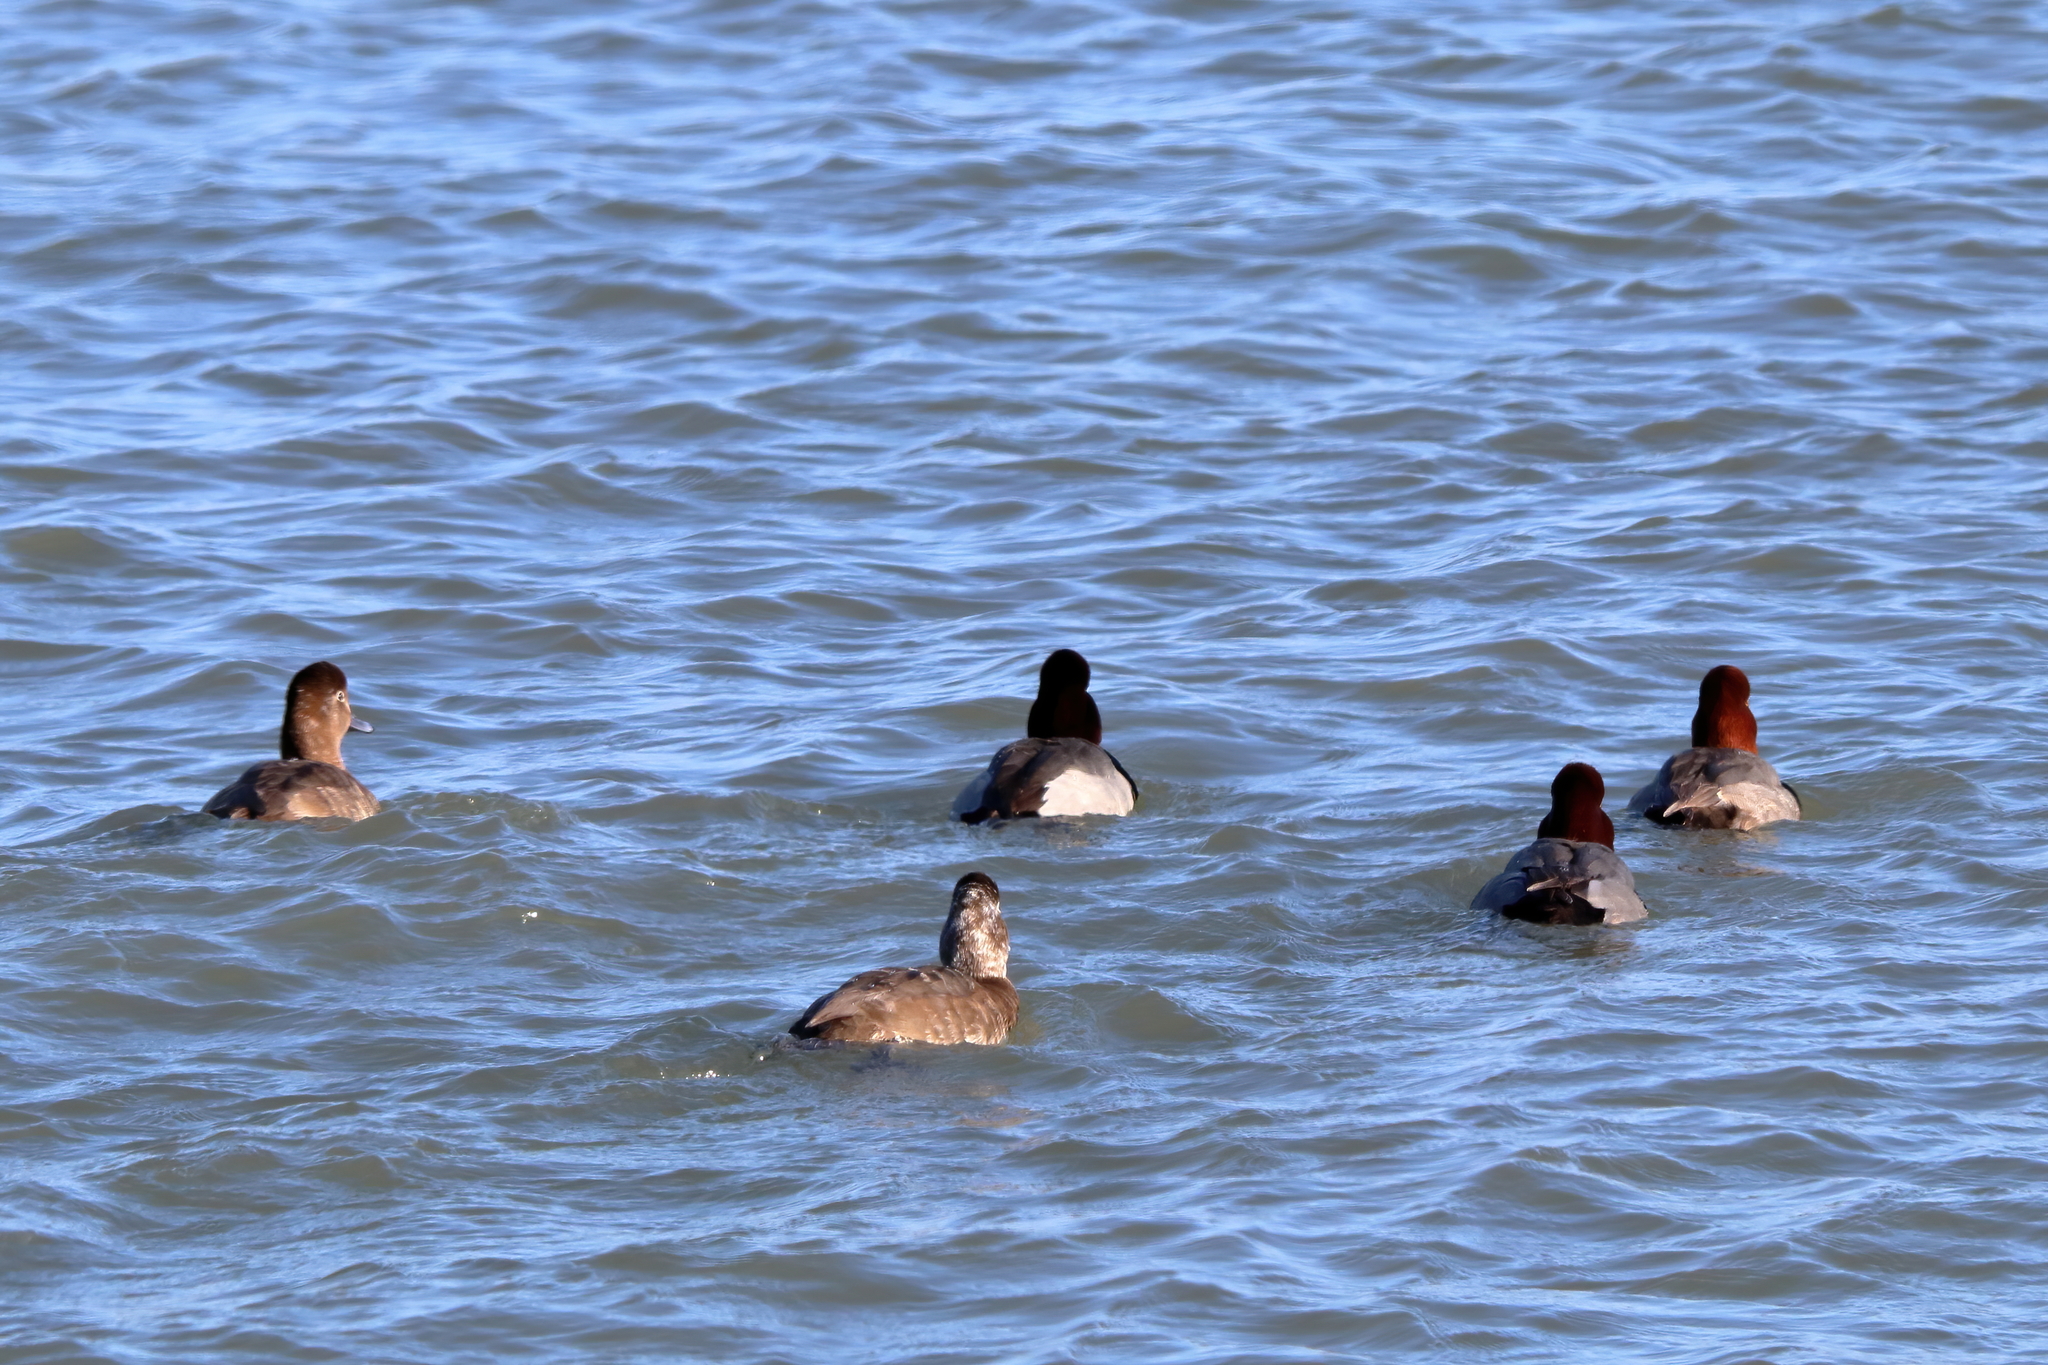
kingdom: Animalia
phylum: Chordata
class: Aves
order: Anseriformes
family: Anatidae
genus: Aythya
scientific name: Aythya americana
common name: Redhead
